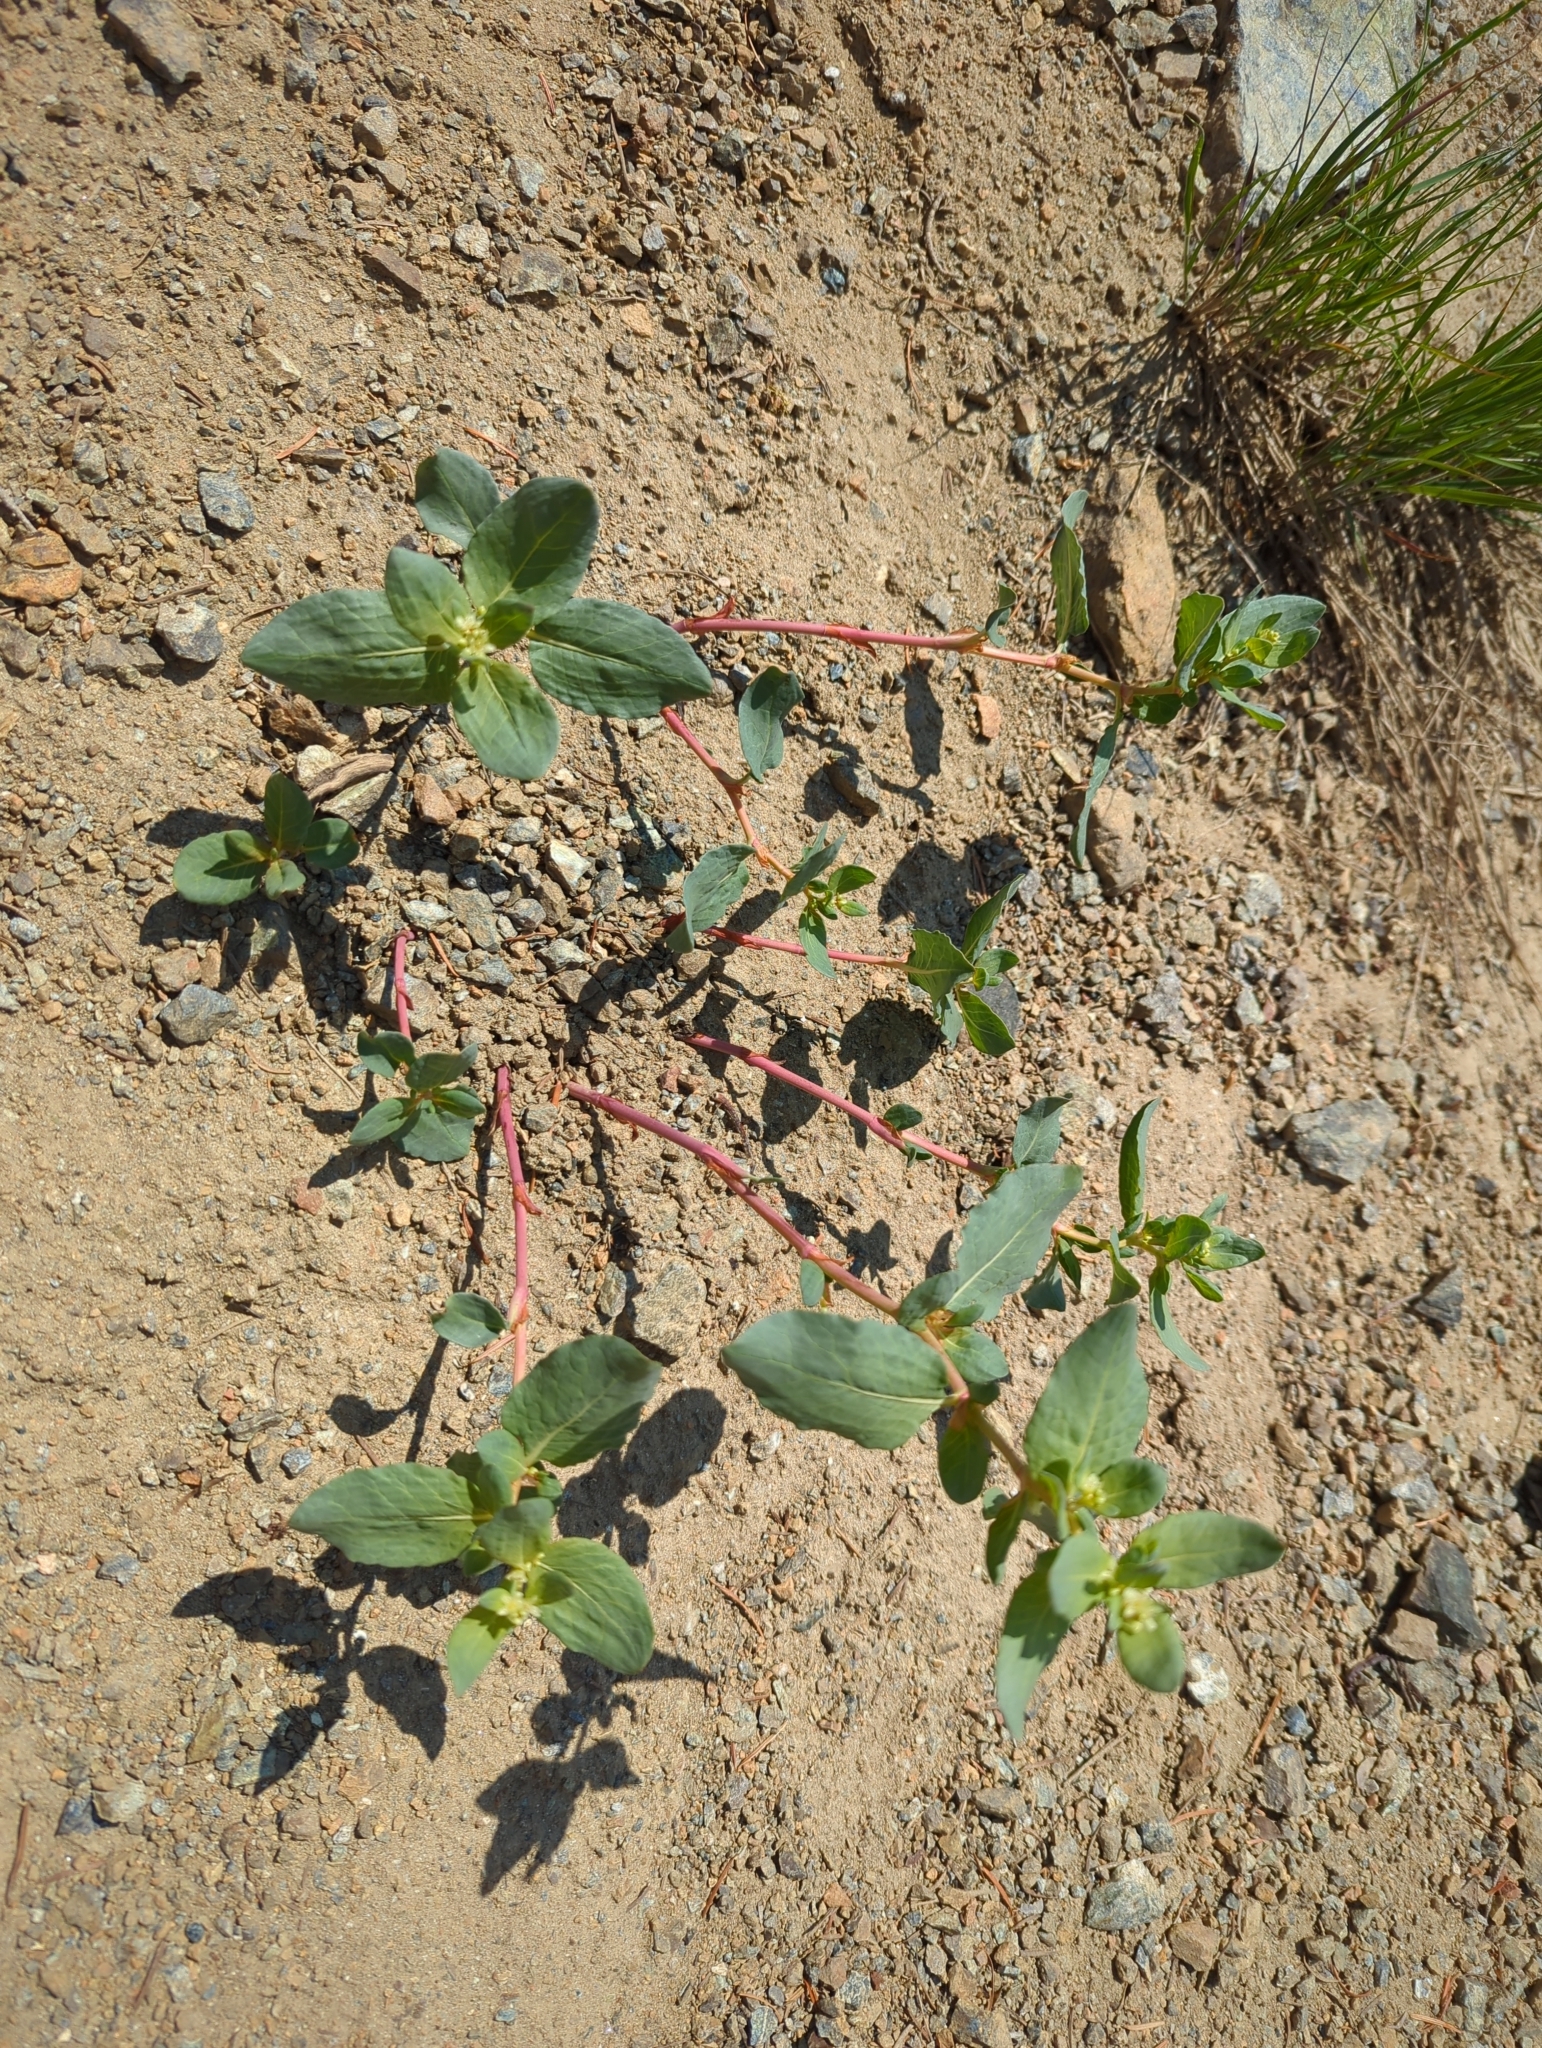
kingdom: Plantae
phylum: Tracheophyta
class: Magnoliopsida
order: Caryophyllales
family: Polygonaceae
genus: Koenigia
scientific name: Koenigia davisiae
